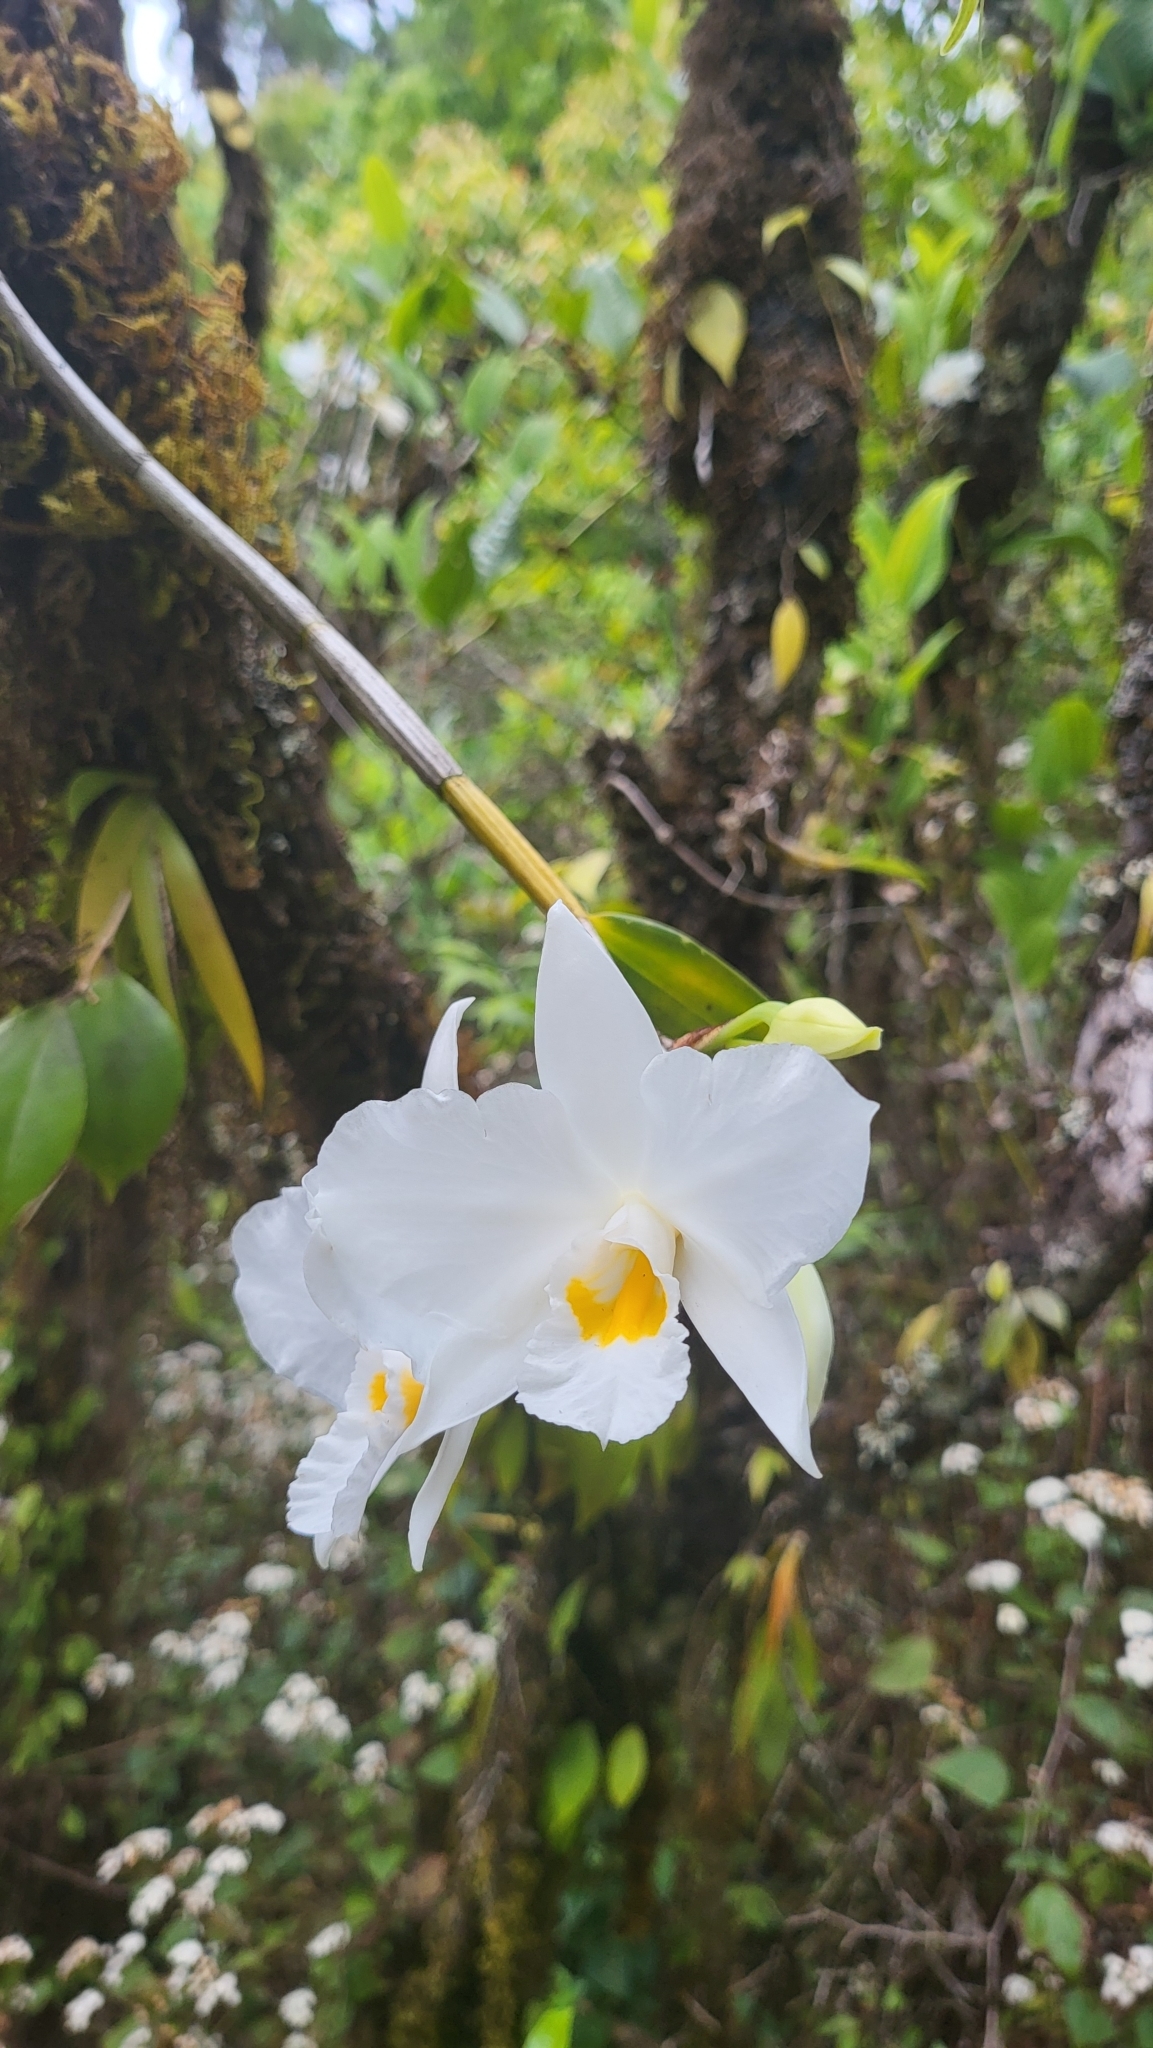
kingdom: Plantae
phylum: Tracheophyta
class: Liliopsida
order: Asparagales
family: Orchidaceae
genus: Dendrobium
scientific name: Dendrobium infundibulum
